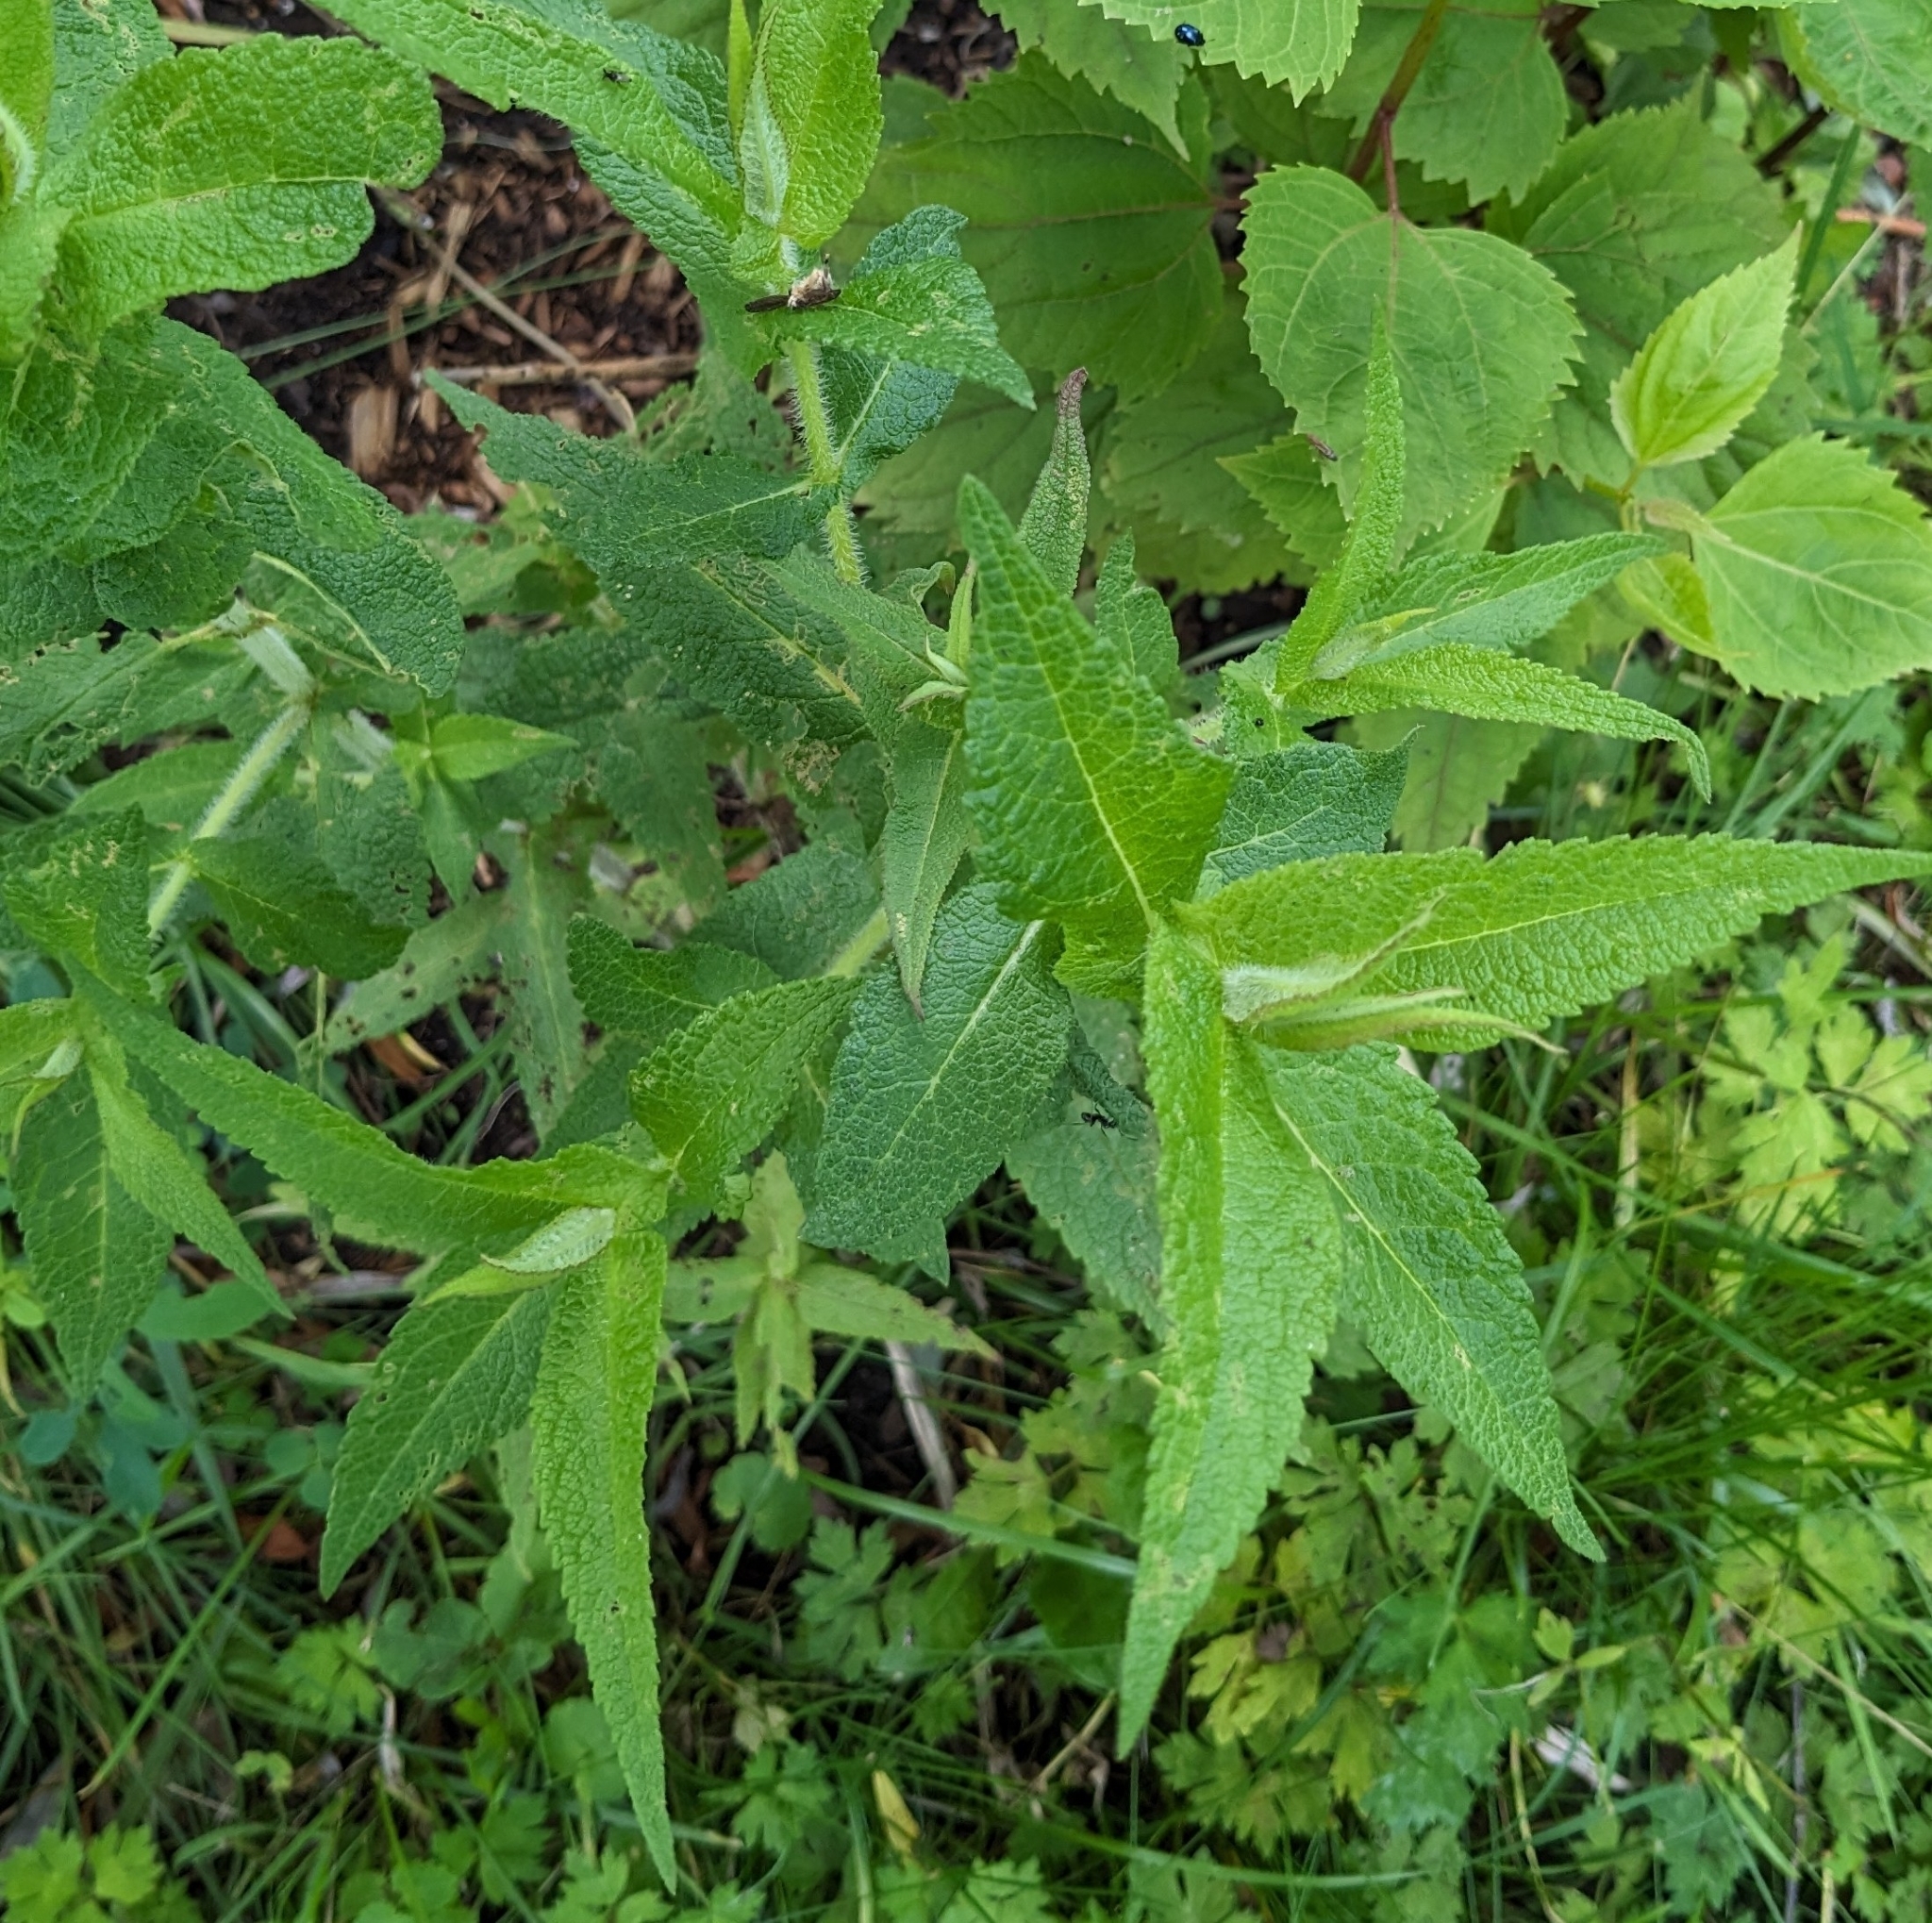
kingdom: Plantae
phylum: Tracheophyta
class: Magnoliopsida
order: Asterales
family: Asteraceae
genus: Eupatorium
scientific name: Eupatorium perfoliatum
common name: Boneset
